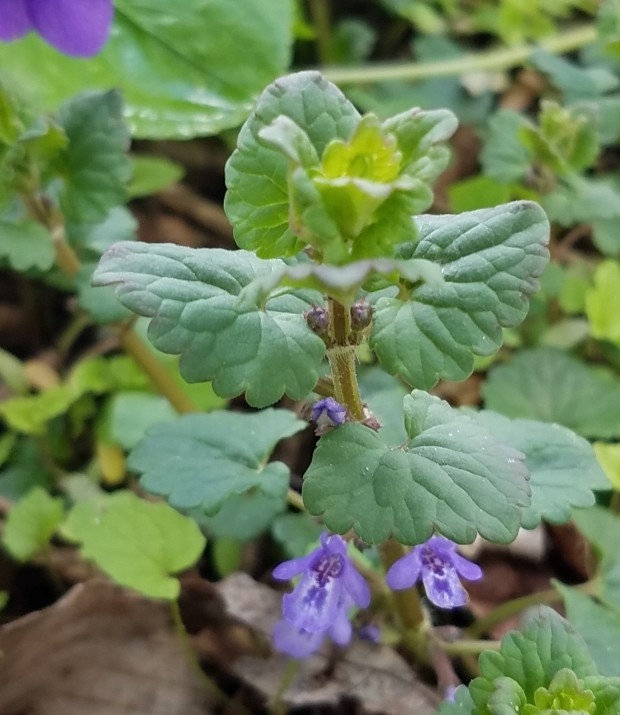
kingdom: Plantae
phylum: Tracheophyta
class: Magnoliopsida
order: Lamiales
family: Lamiaceae
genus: Glechoma
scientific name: Glechoma hederacea
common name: Ground ivy
